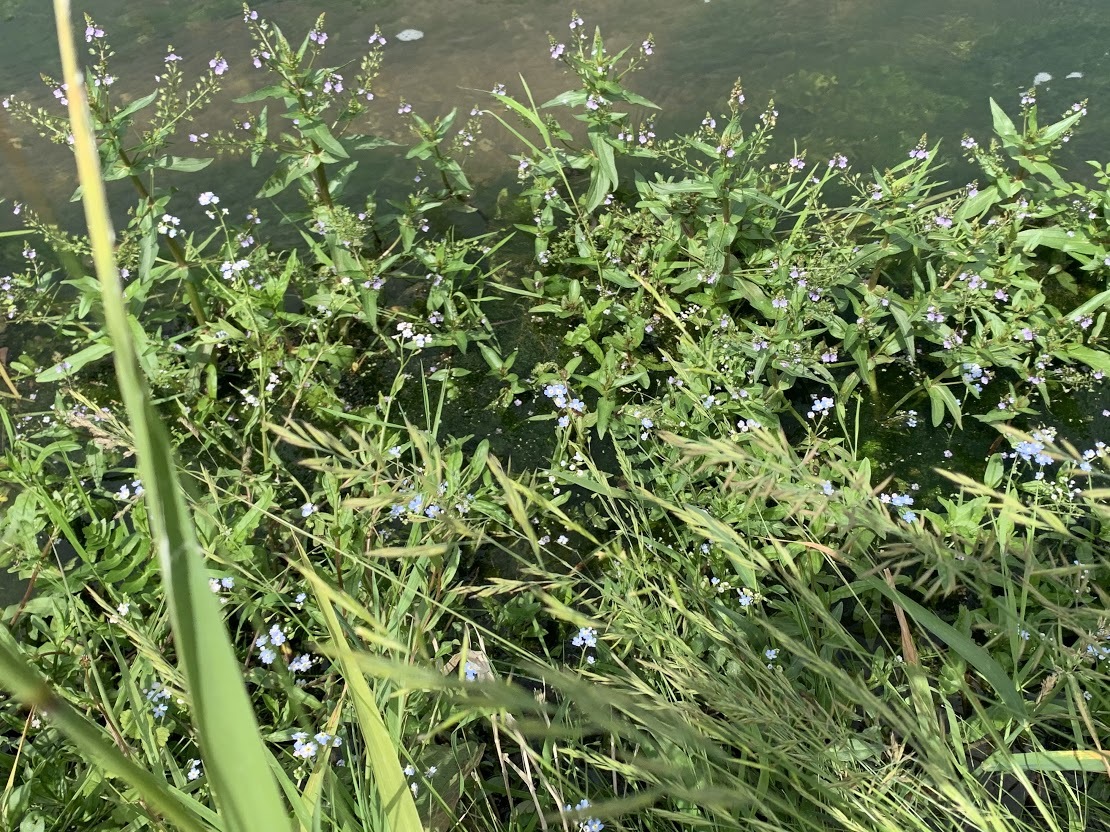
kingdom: Plantae
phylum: Tracheophyta
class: Magnoliopsida
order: Lamiales
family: Plantaginaceae
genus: Veronica
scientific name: Veronica anagallis-aquatica
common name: Water speedwell
